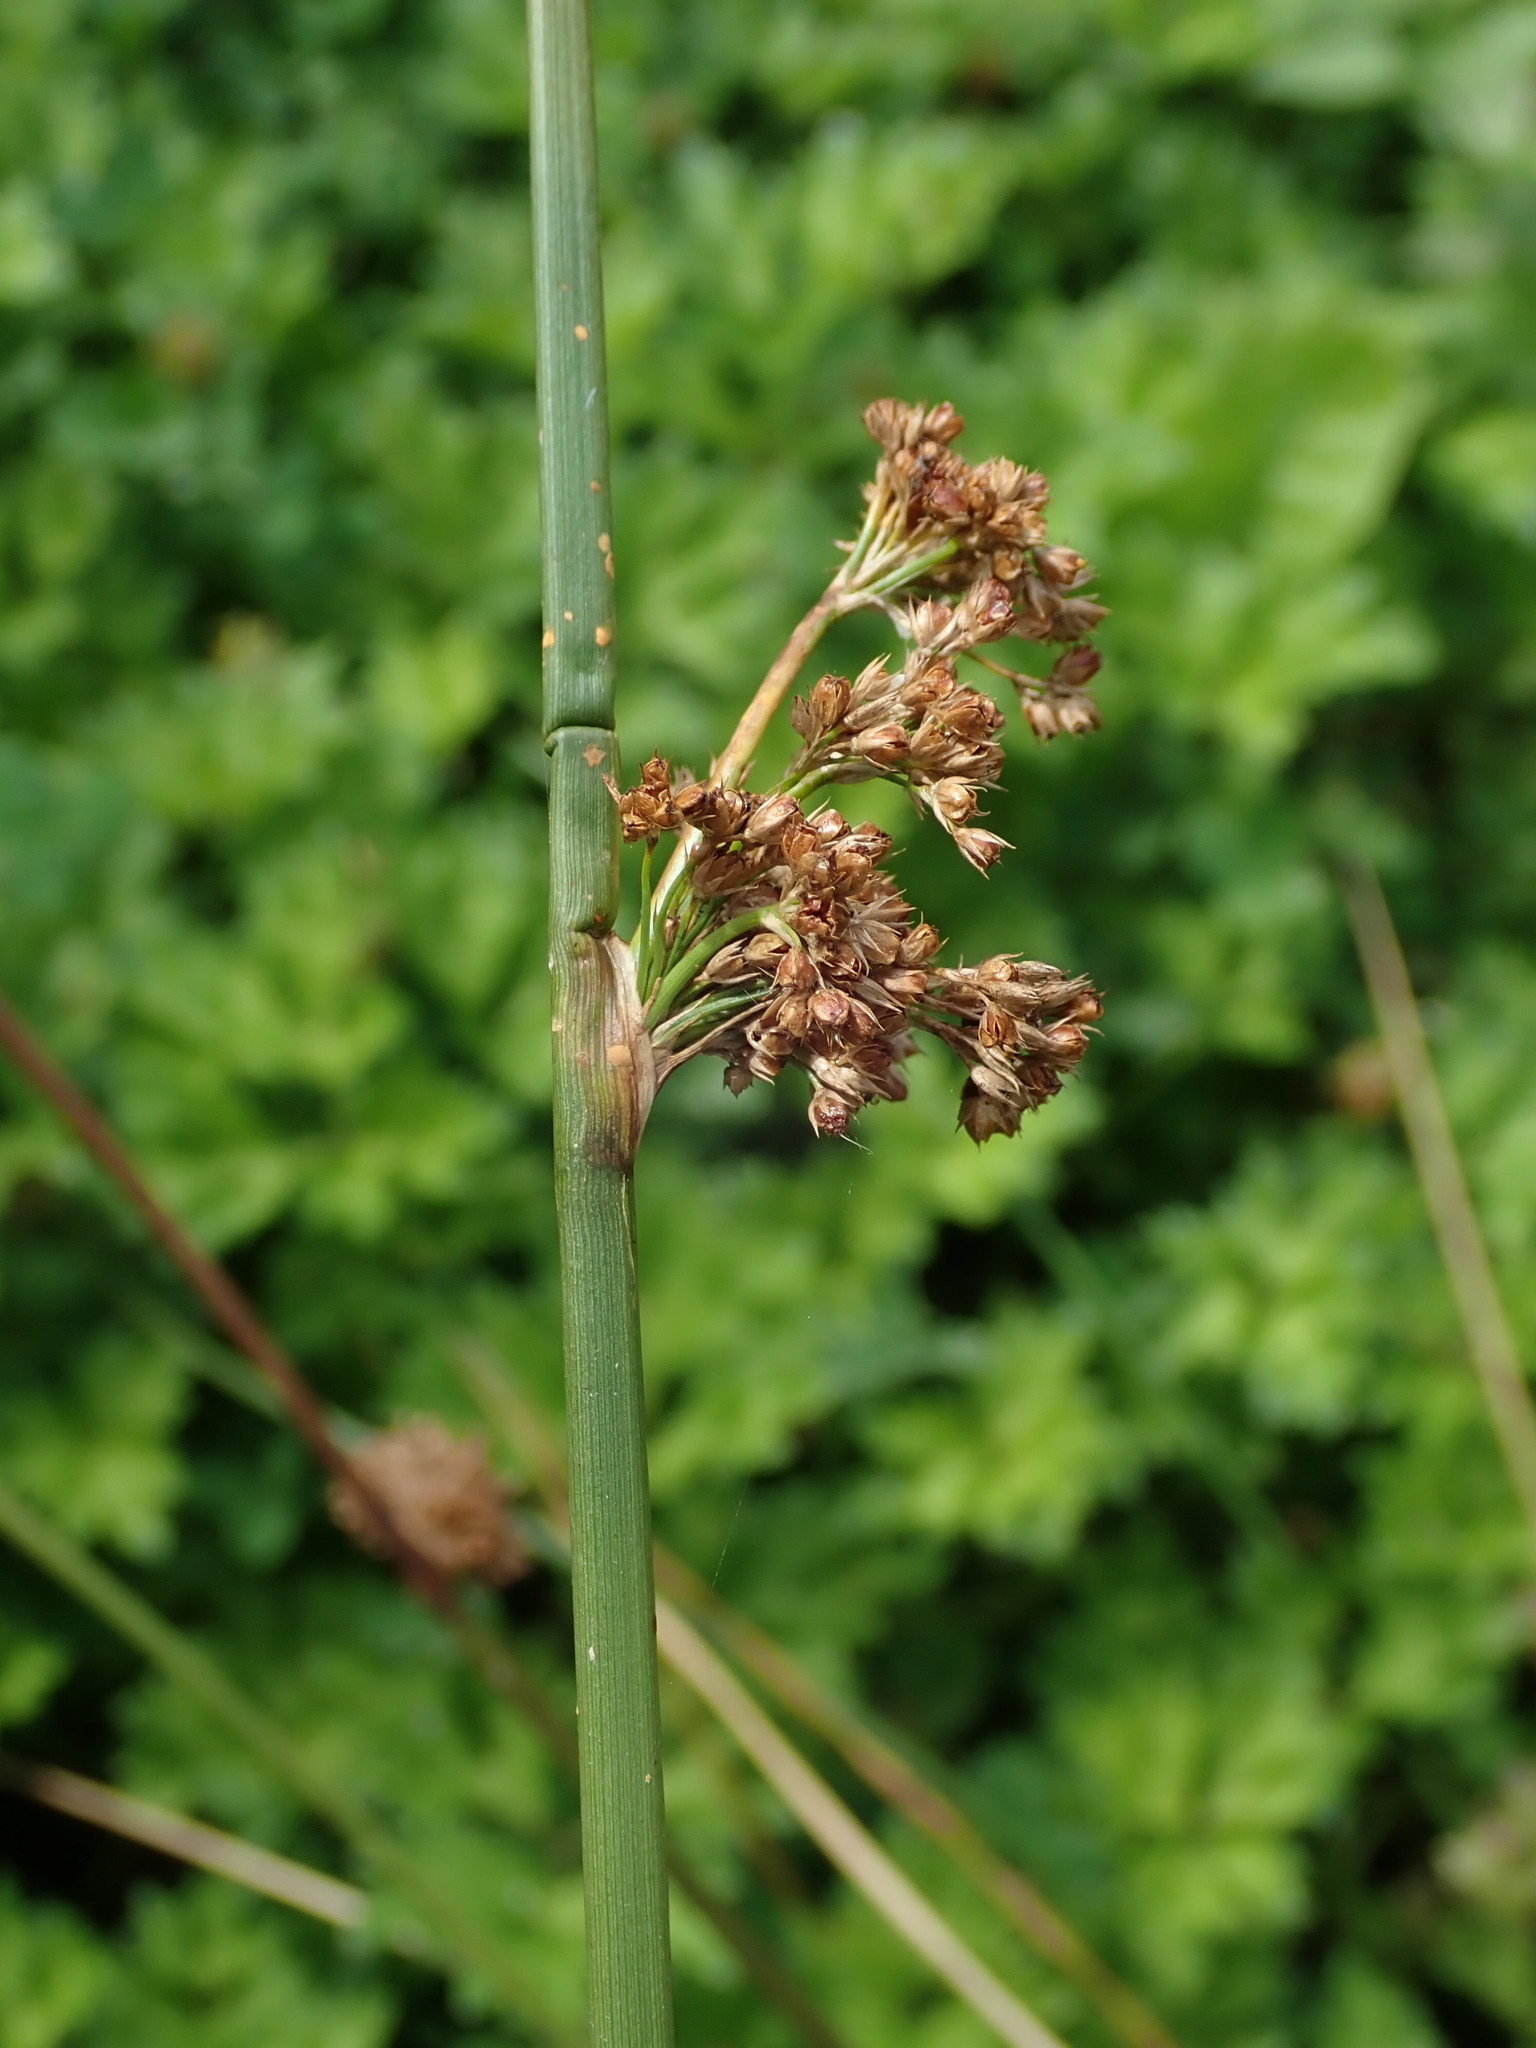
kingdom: Plantae
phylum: Tracheophyta
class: Liliopsida
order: Poales
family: Juncaceae
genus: Juncus
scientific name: Juncus effusus
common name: Soft rush
